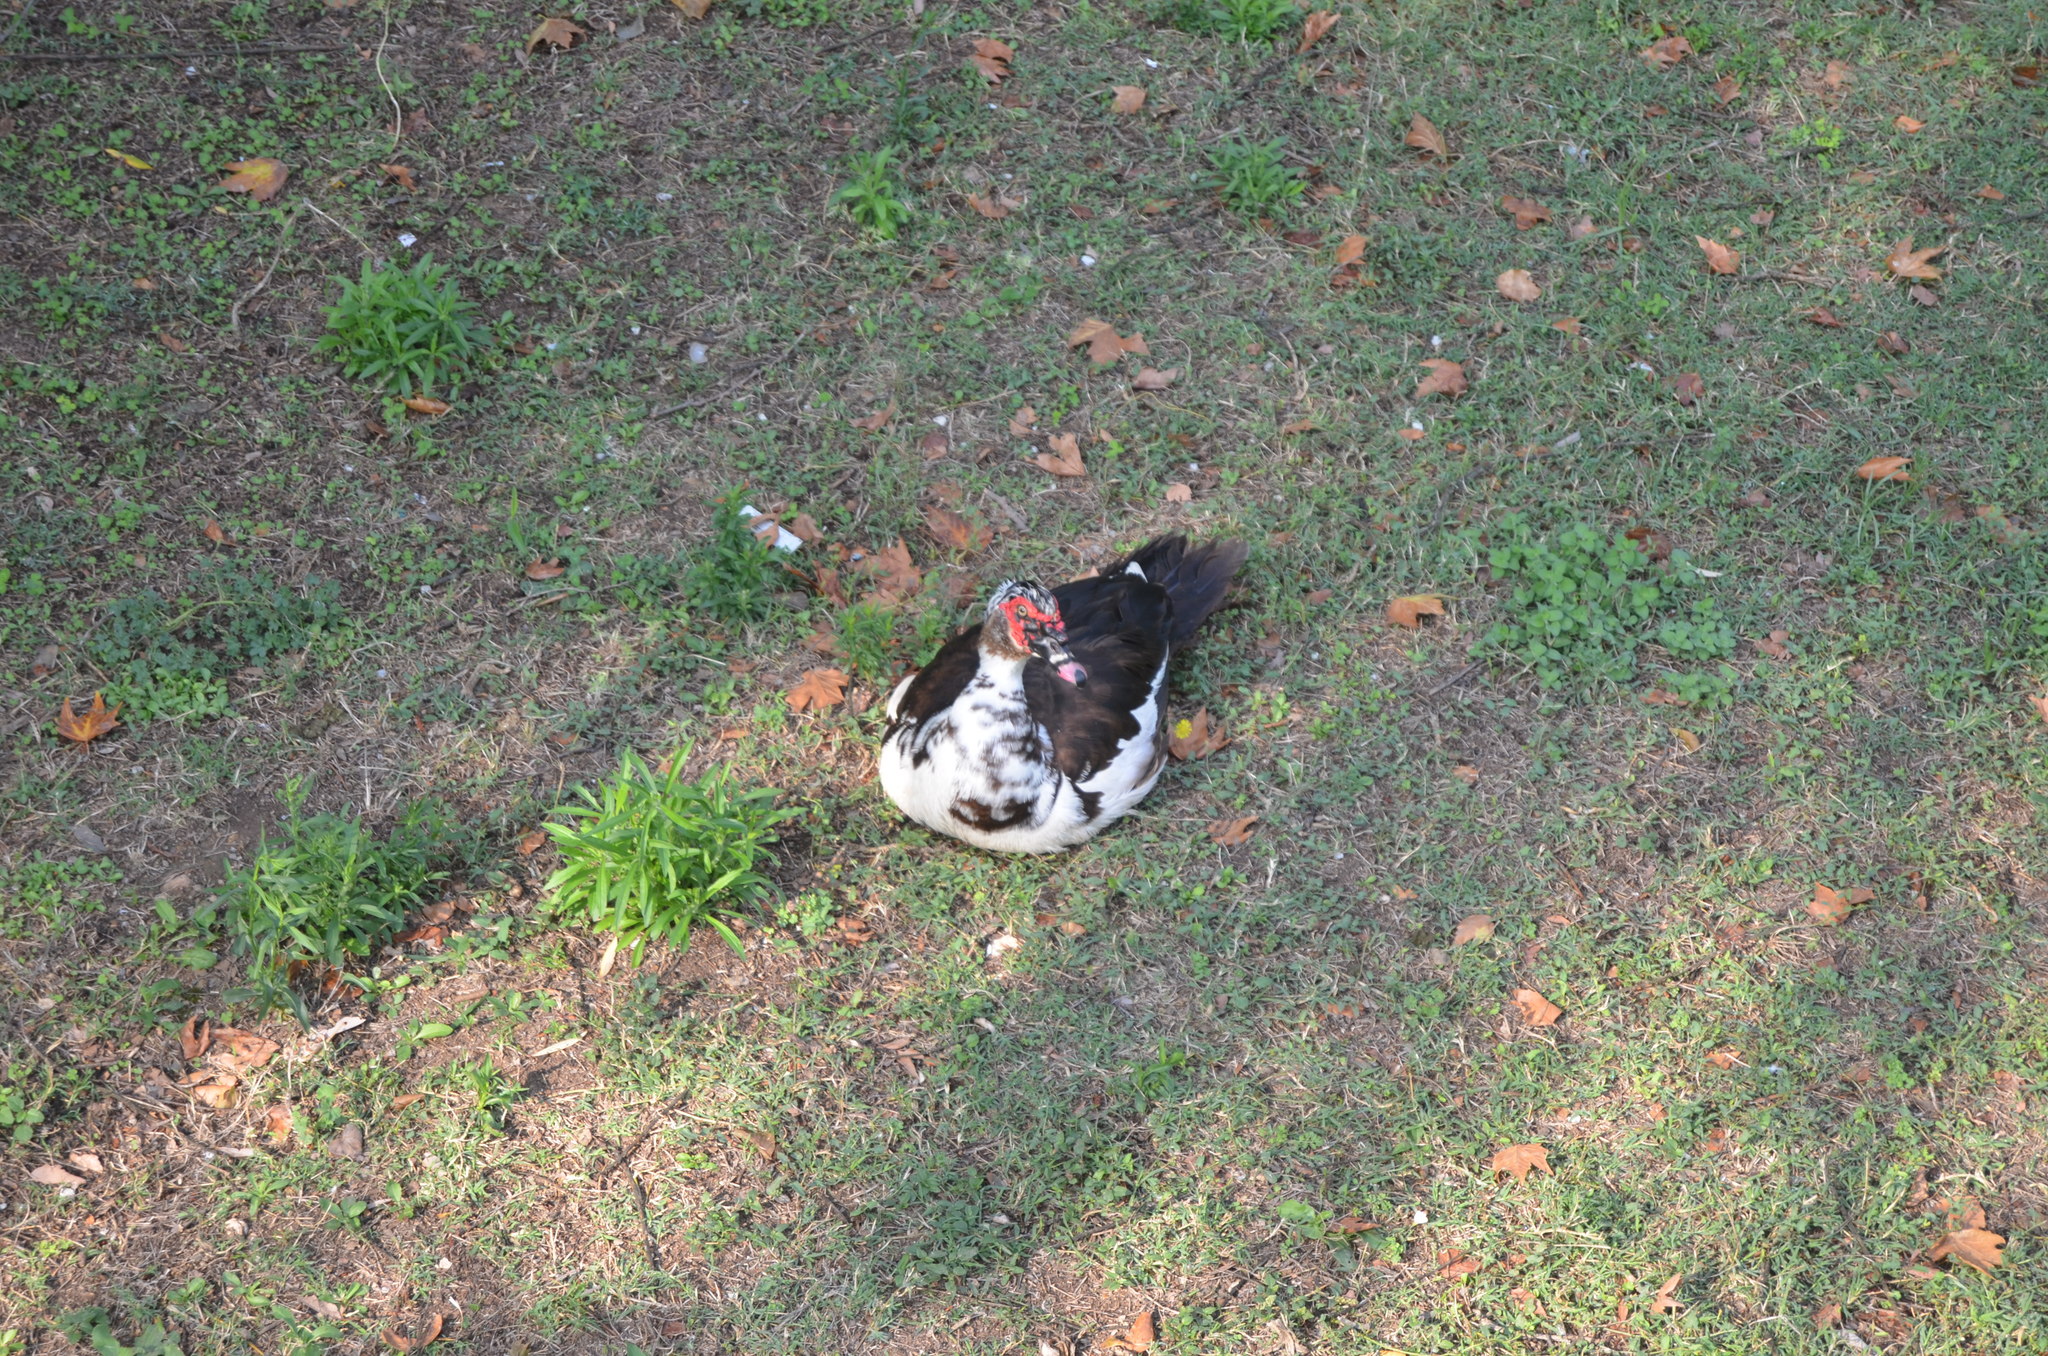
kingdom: Animalia
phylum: Chordata
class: Aves
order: Anseriformes
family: Anatidae
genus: Cairina
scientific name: Cairina moschata
